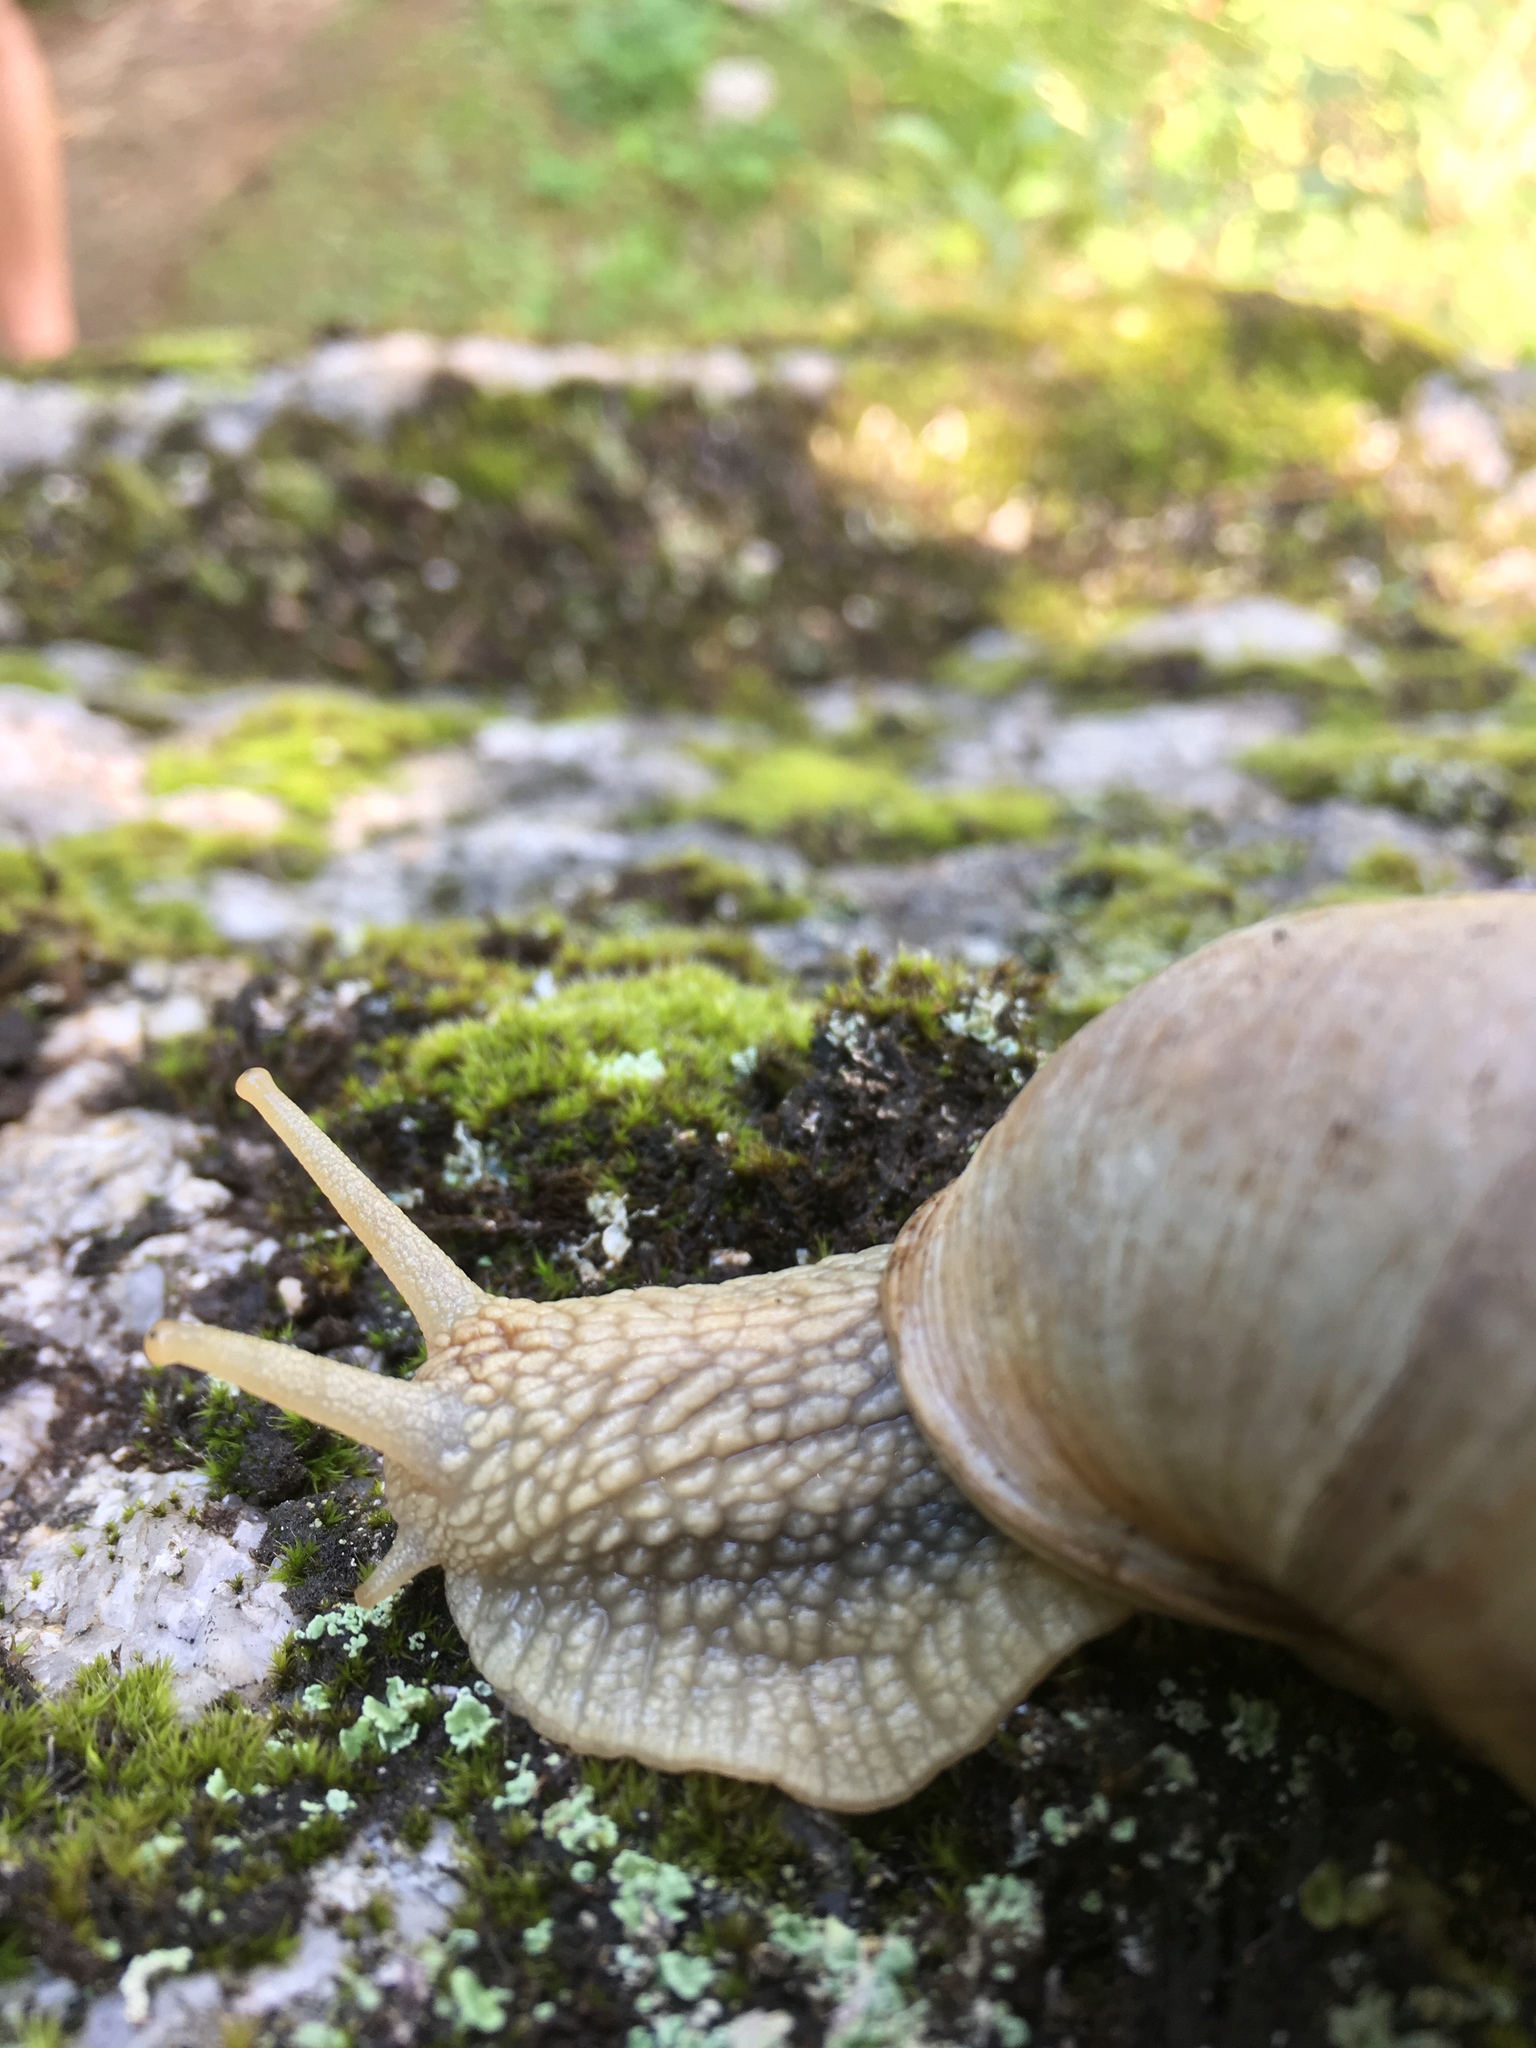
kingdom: Animalia
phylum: Mollusca
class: Gastropoda
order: Stylommatophora
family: Helicidae
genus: Helix
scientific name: Helix pomatia
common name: Roman snail
